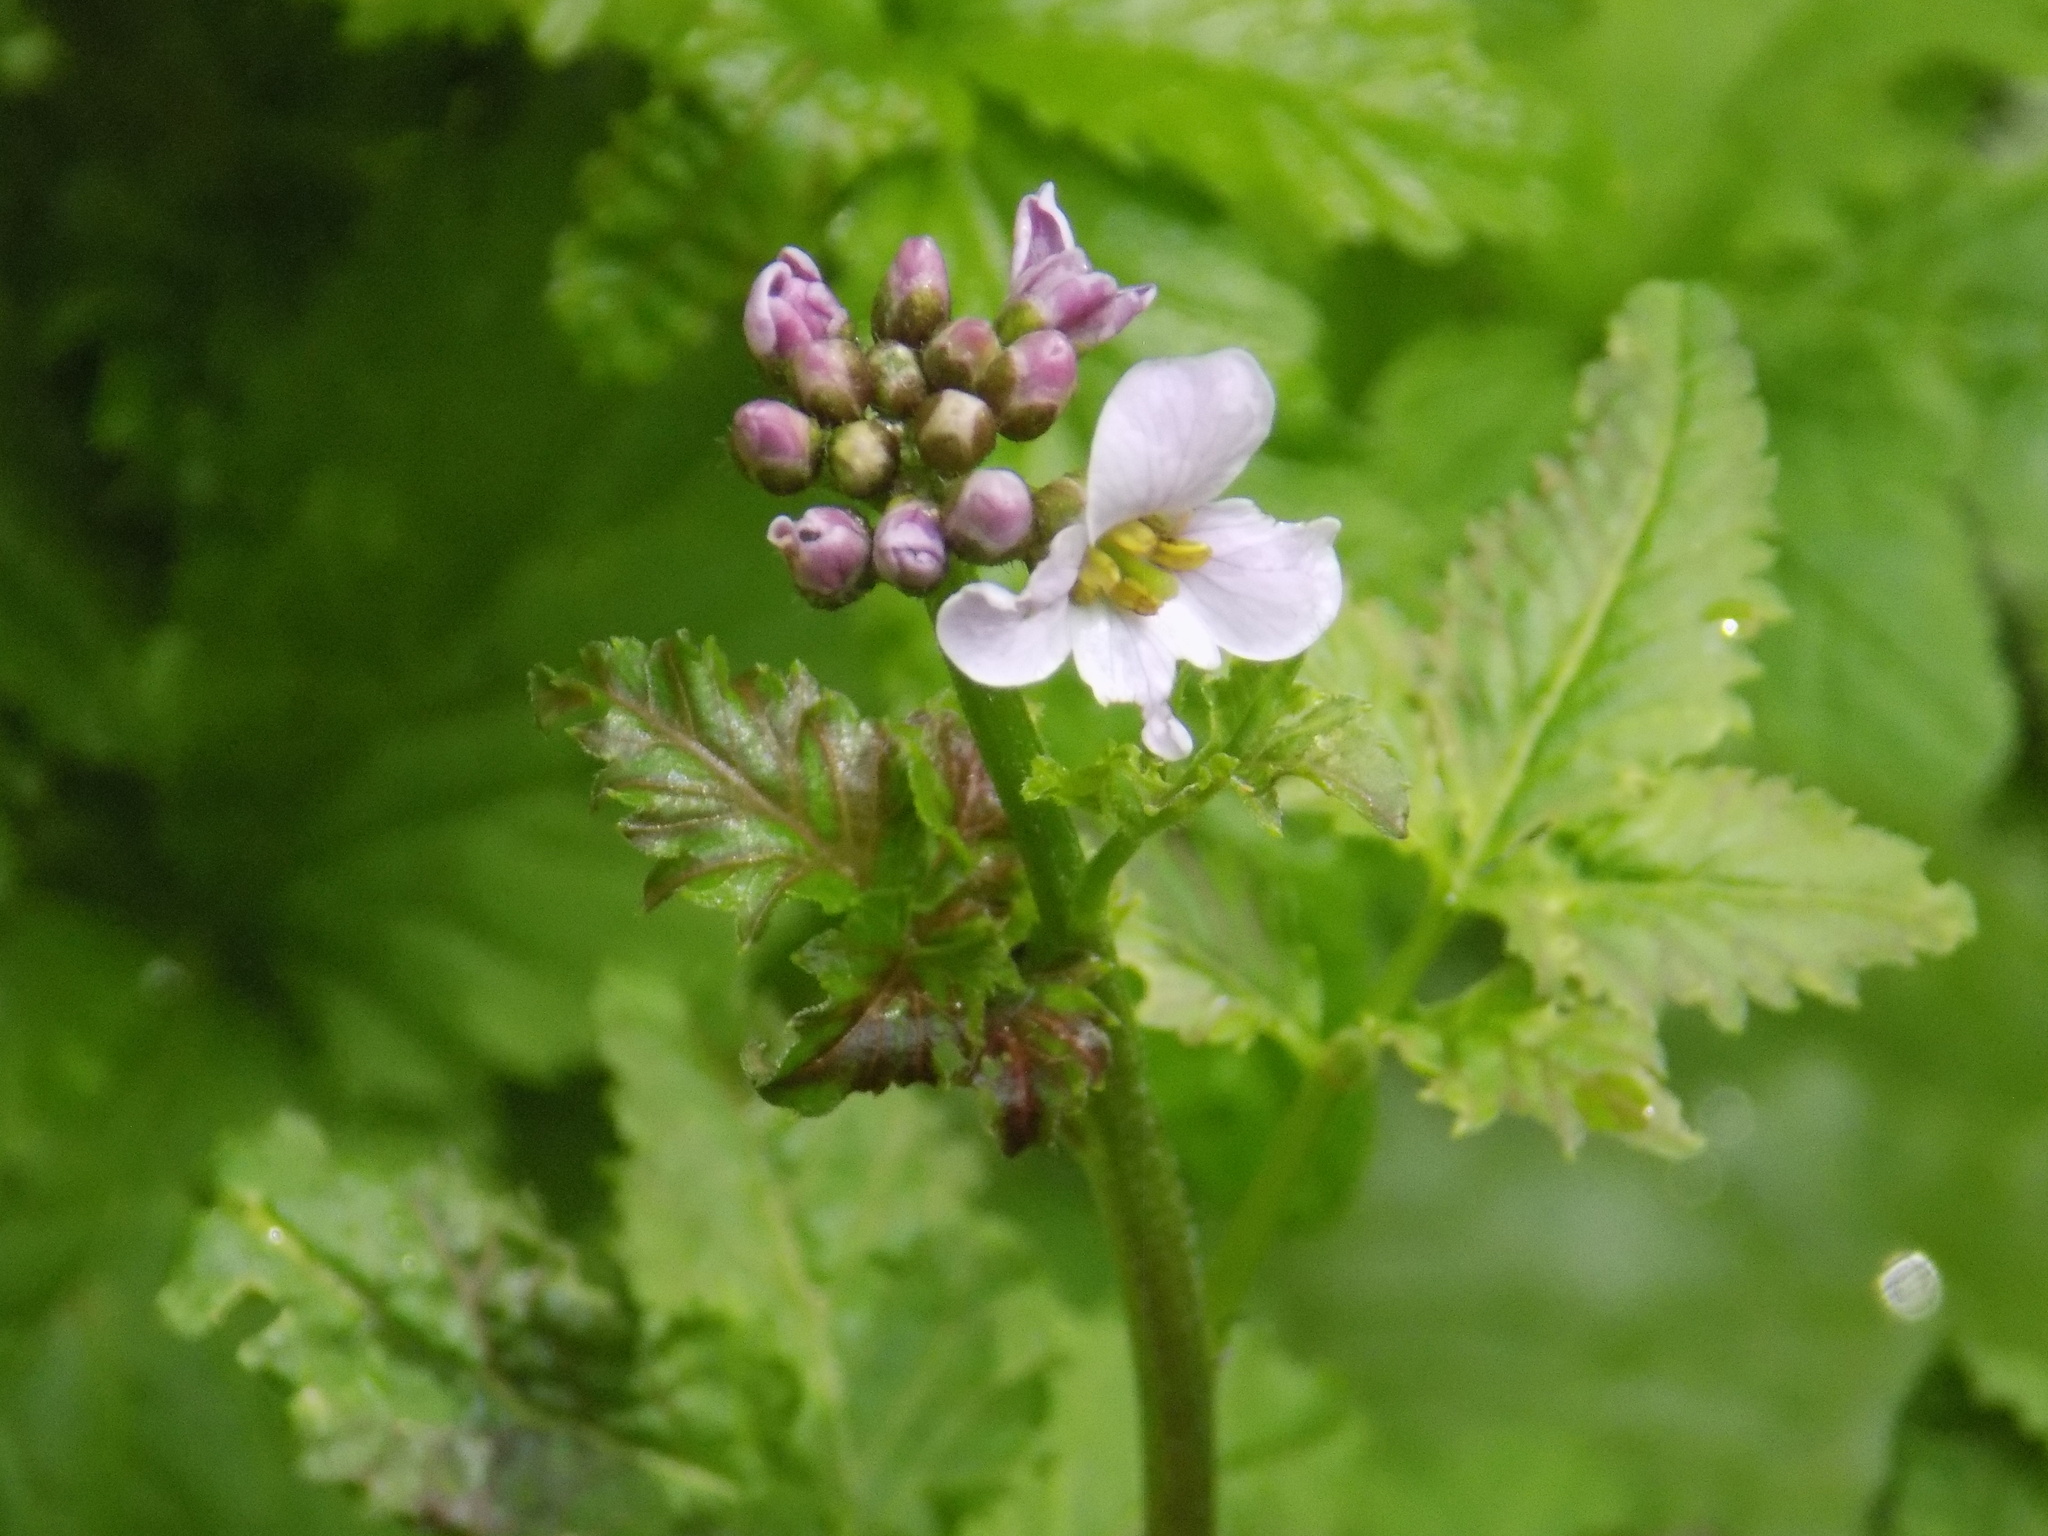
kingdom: Plantae
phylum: Tracheophyta
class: Magnoliopsida
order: Brassicales
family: Brassicaceae
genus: Cardamine
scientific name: Cardamine macrophylla
